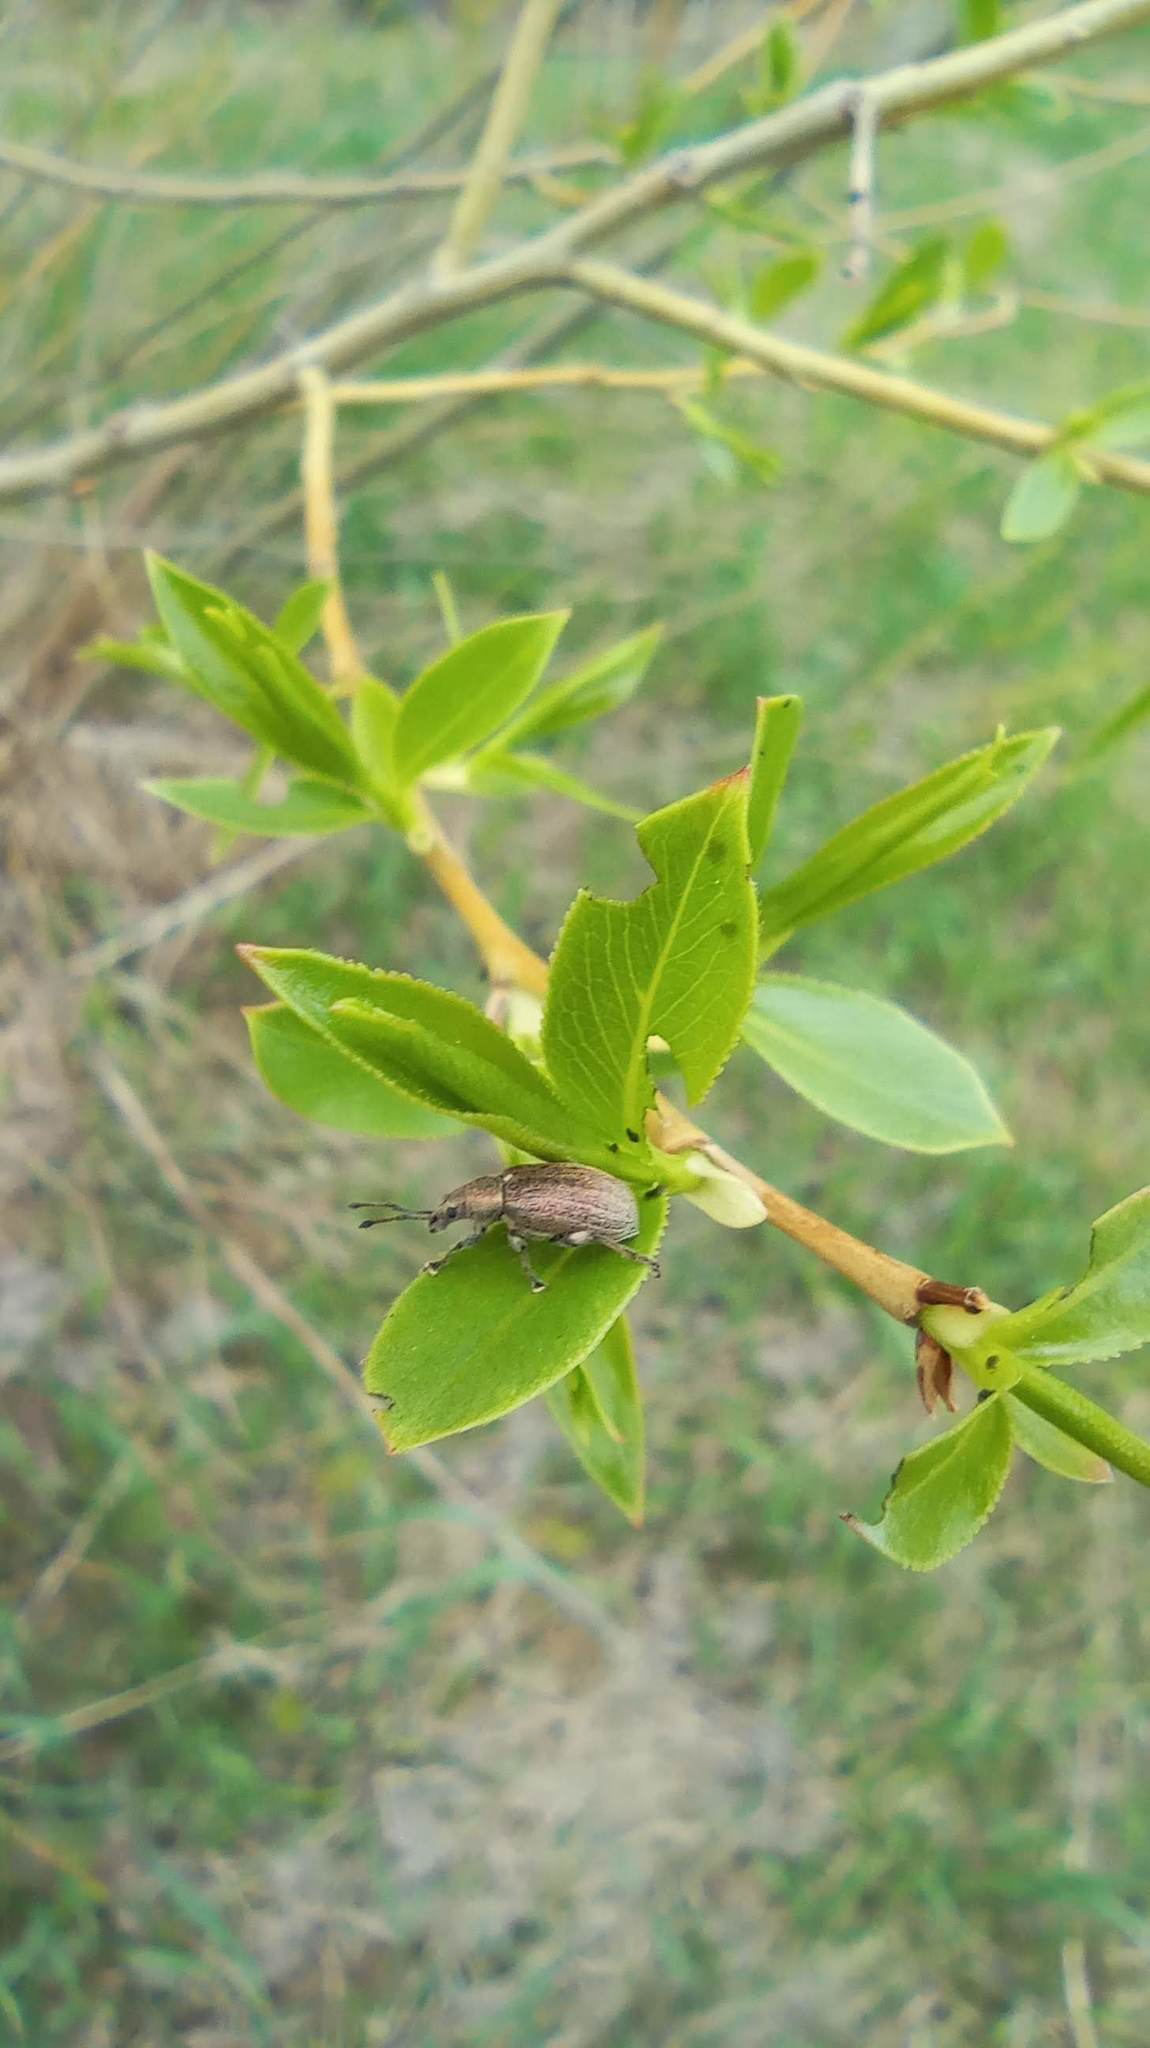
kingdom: Animalia
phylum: Arthropoda
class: Insecta
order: Coleoptera
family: Curculionidae
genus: Phyllobius
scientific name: Phyllobius pyri
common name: Common leaf weevil
